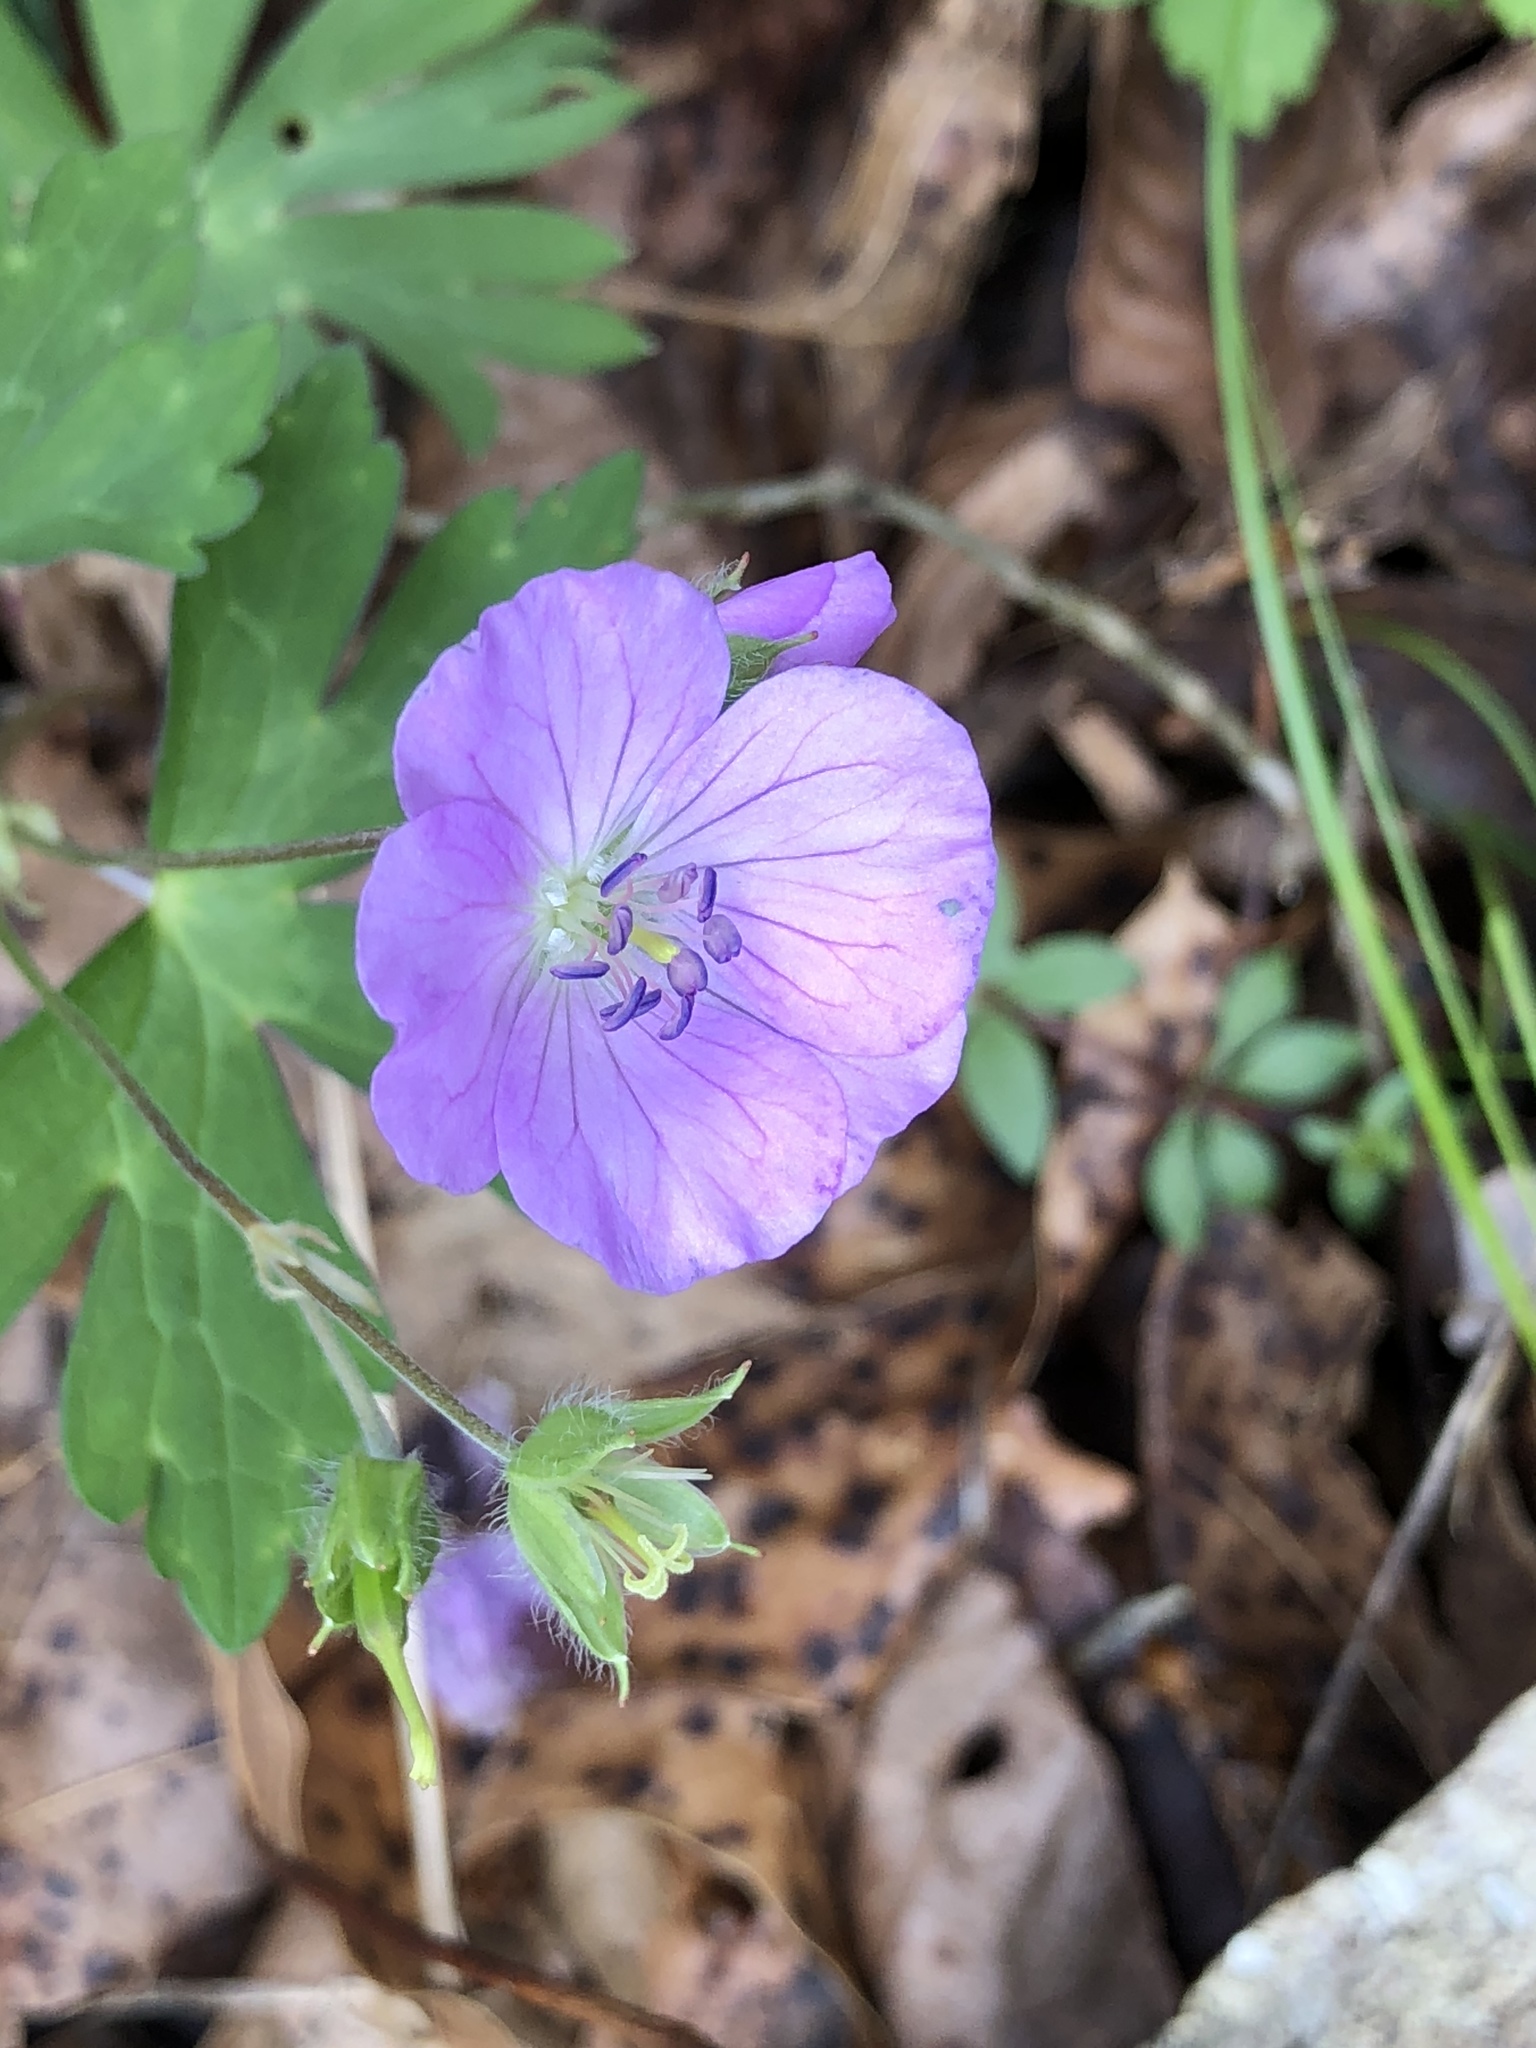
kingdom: Plantae
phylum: Tracheophyta
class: Magnoliopsida
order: Geraniales
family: Geraniaceae
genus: Geranium
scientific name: Geranium maculatum
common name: Spotted geranium
